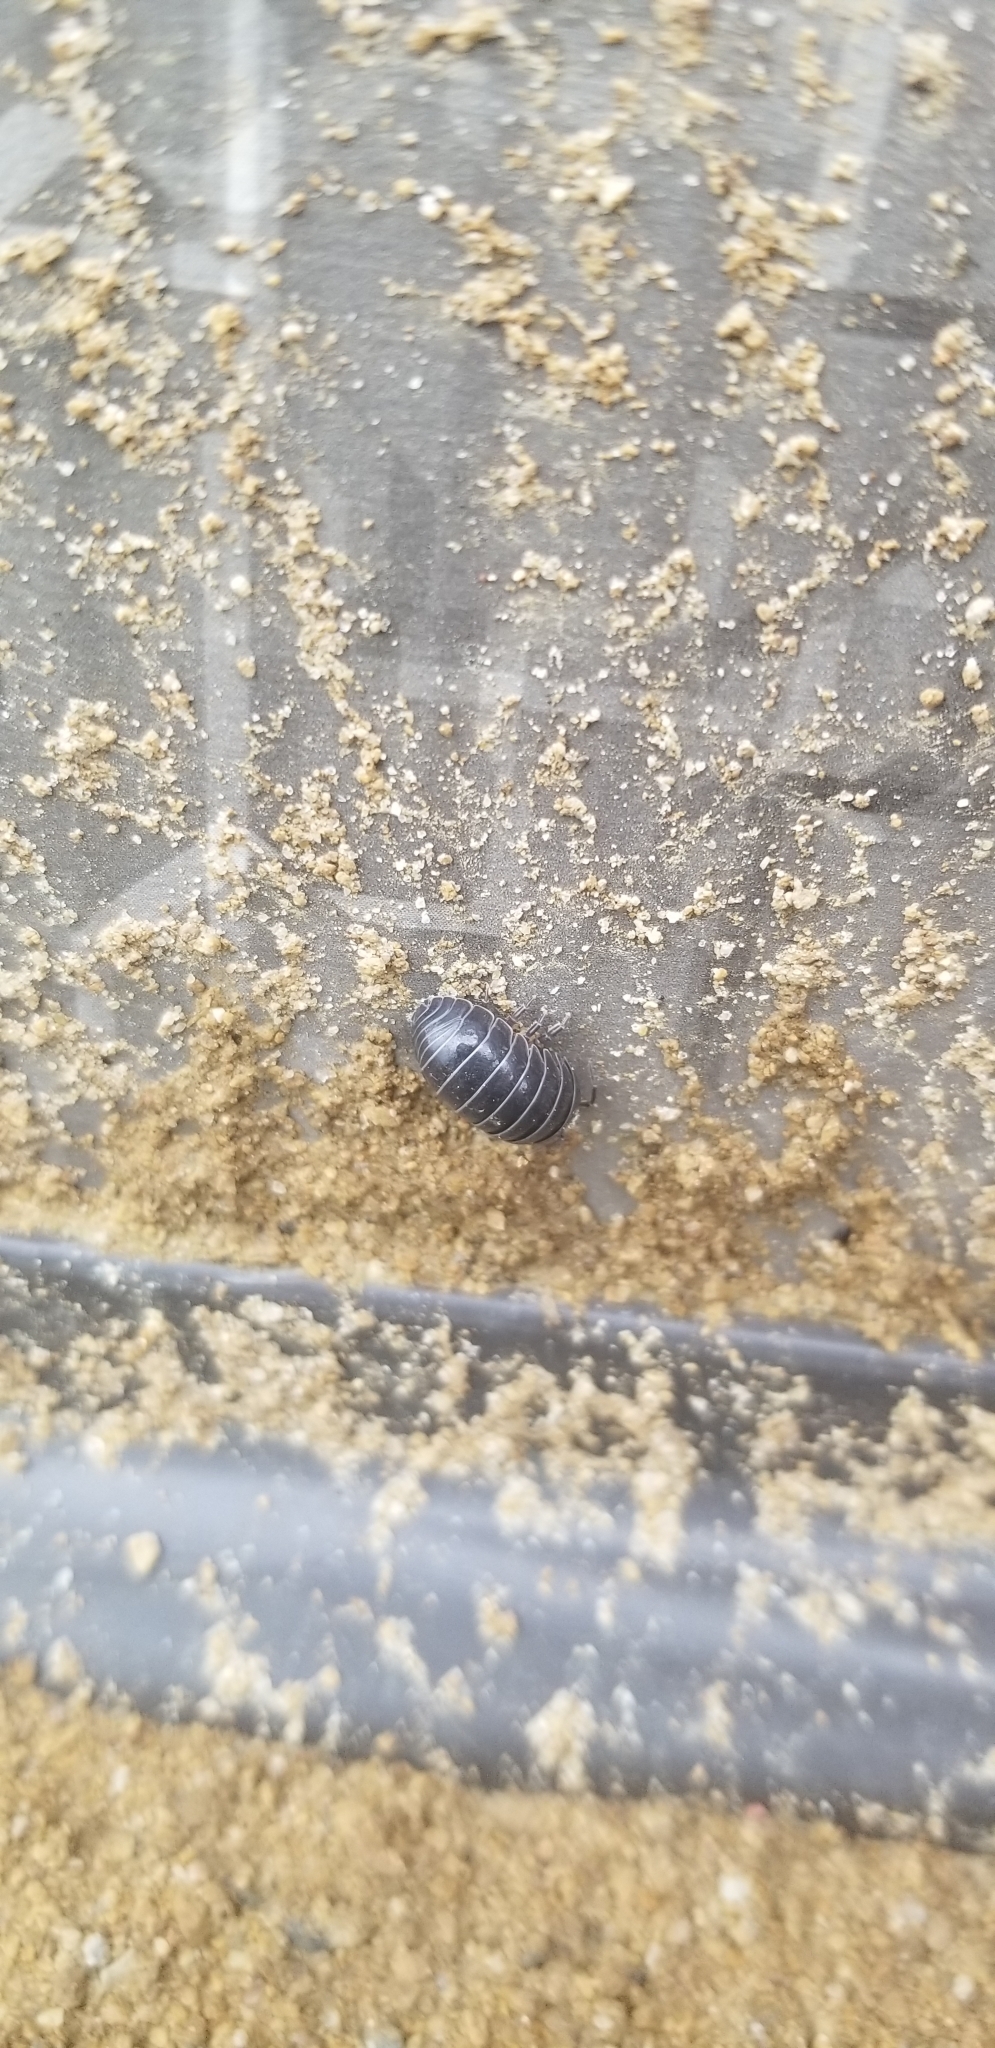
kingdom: Animalia
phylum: Arthropoda
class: Malacostraca
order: Isopoda
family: Armadillidiidae
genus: Armadillidium
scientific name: Armadillidium vulgare
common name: Common pill woodlouse
